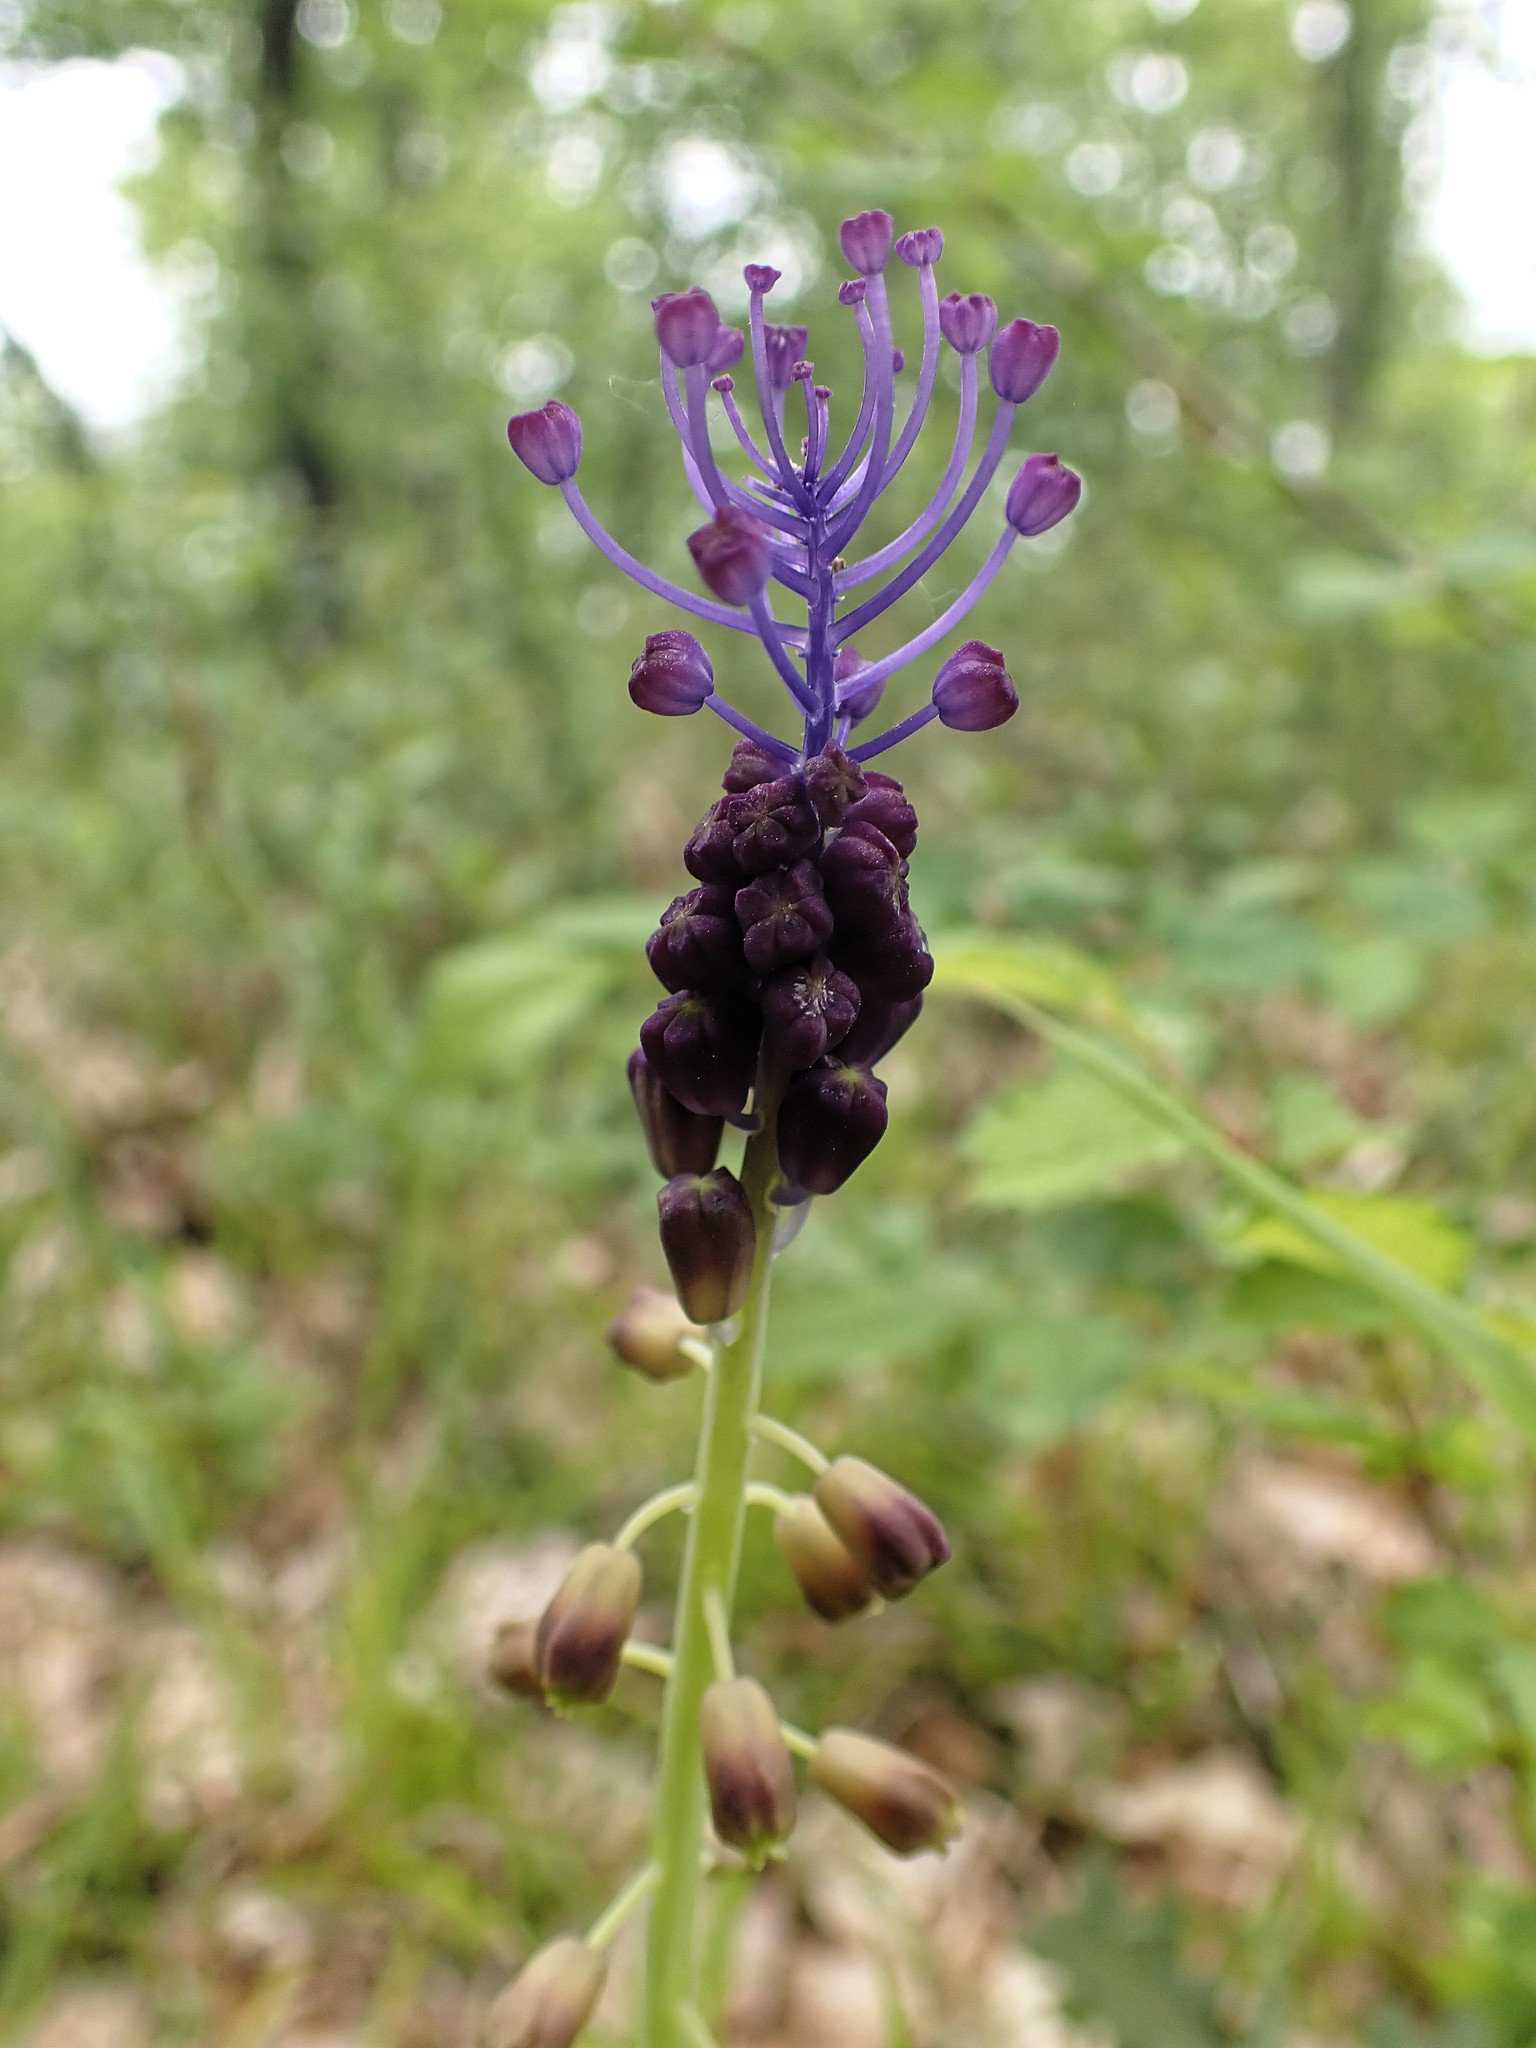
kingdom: Plantae
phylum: Tracheophyta
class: Liliopsida
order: Asparagales
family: Asparagaceae
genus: Muscari
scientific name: Muscari comosum
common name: Tassel hyacinth
